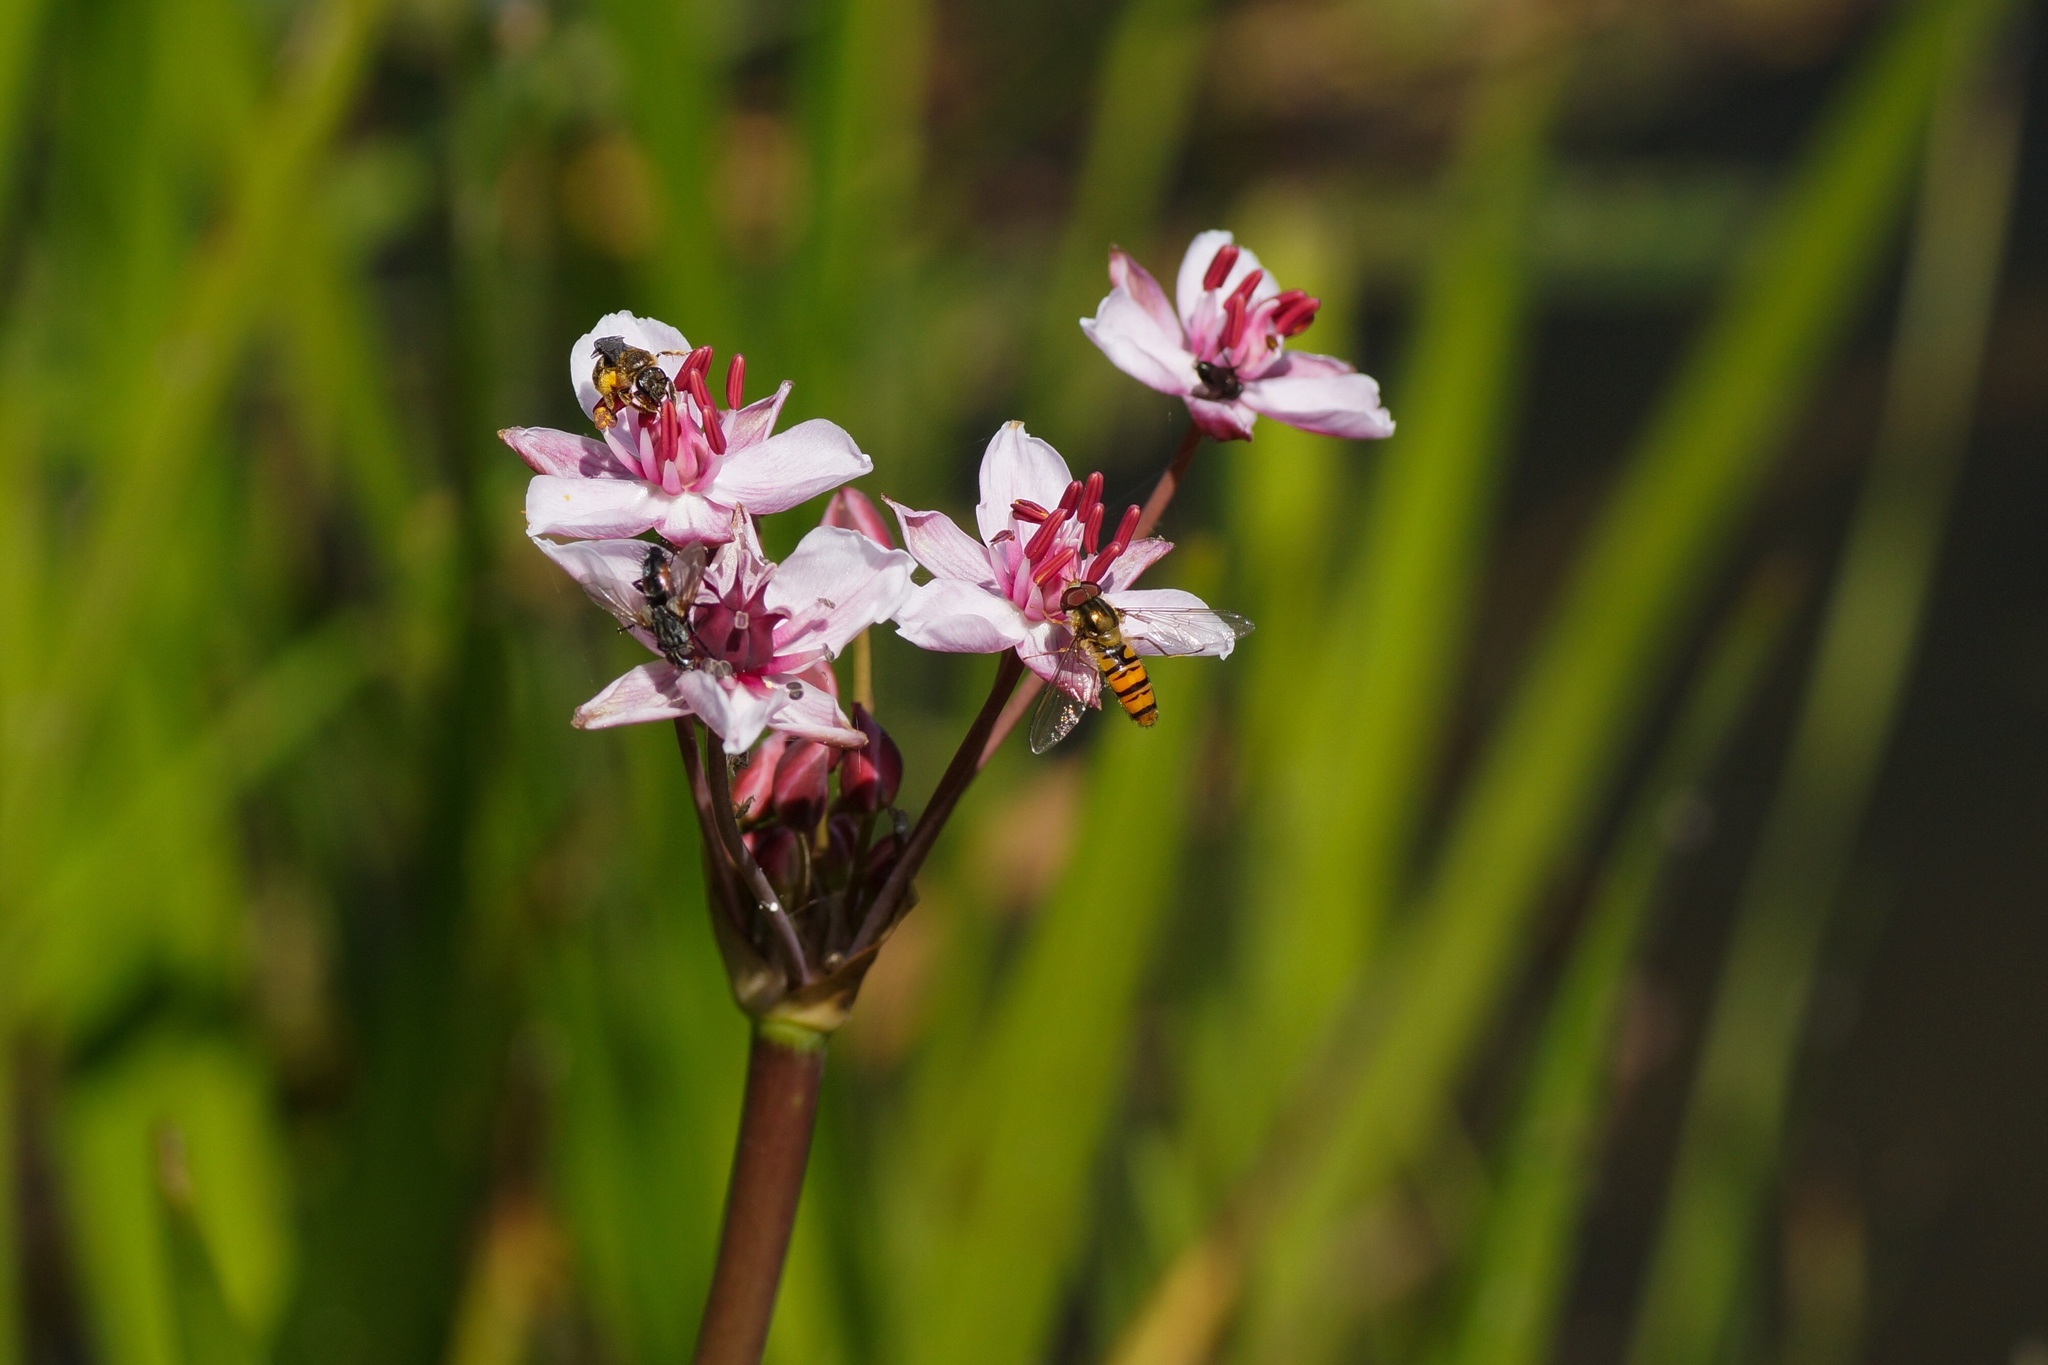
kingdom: Plantae
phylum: Tracheophyta
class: Liliopsida
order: Alismatales
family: Butomaceae
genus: Butomus
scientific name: Butomus umbellatus
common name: Flowering-rush
